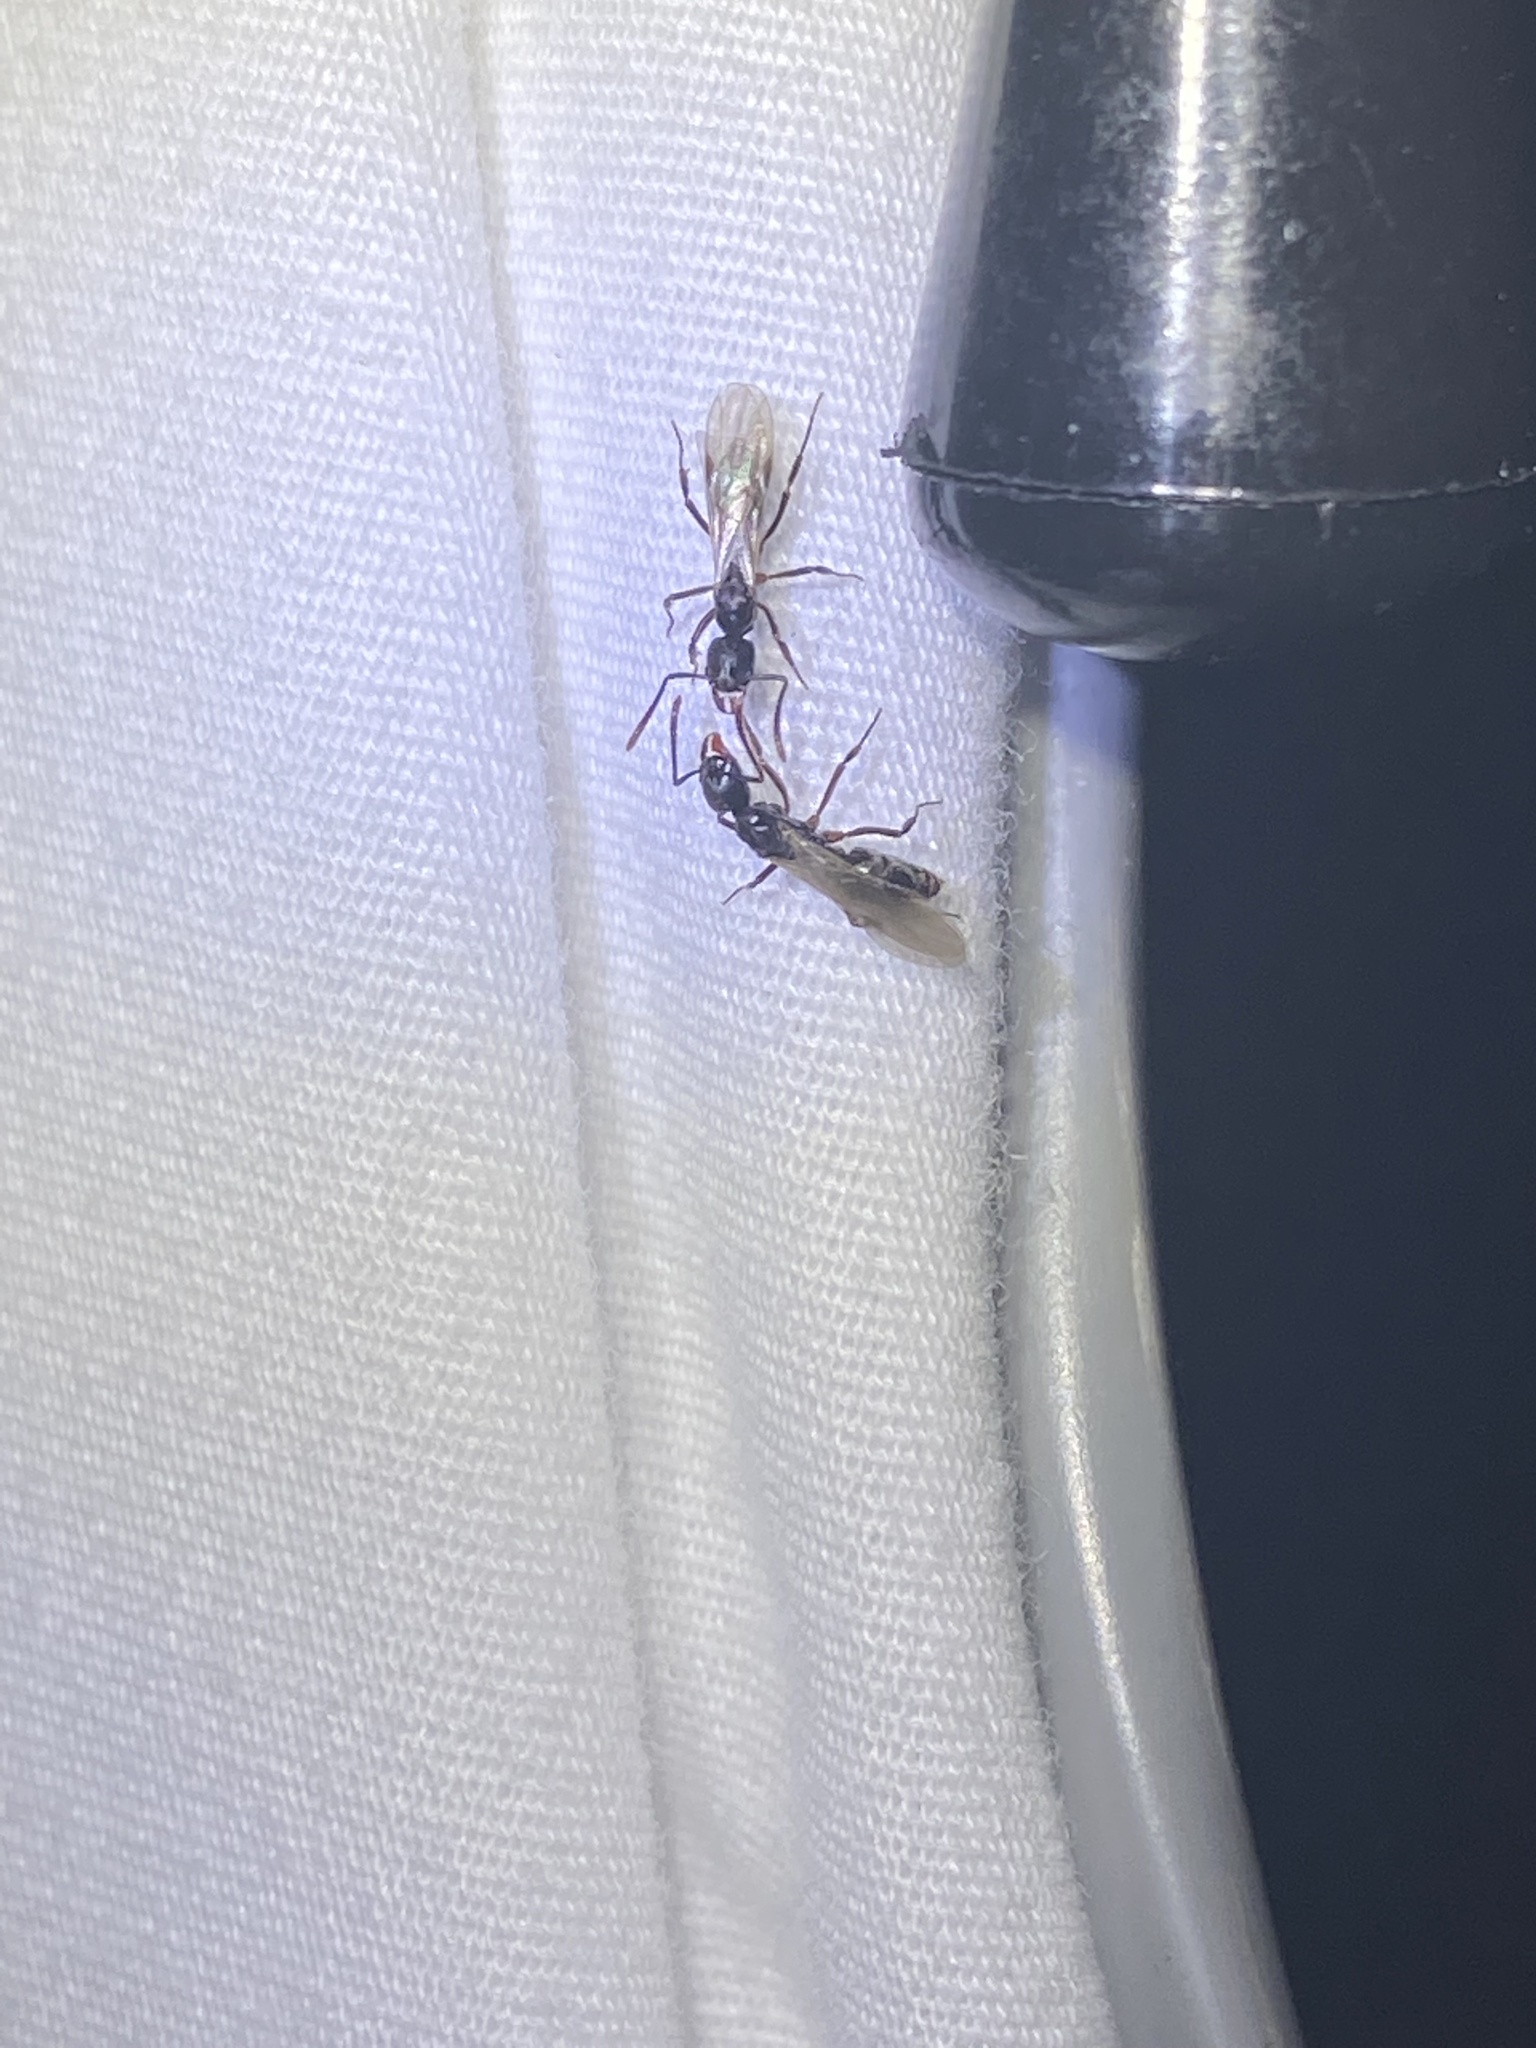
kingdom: Animalia
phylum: Arthropoda
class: Insecta
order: Hymenoptera
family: Formicidae
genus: Pachycondyla
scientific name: Pachycondyla chinensis
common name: Asian needle ant
